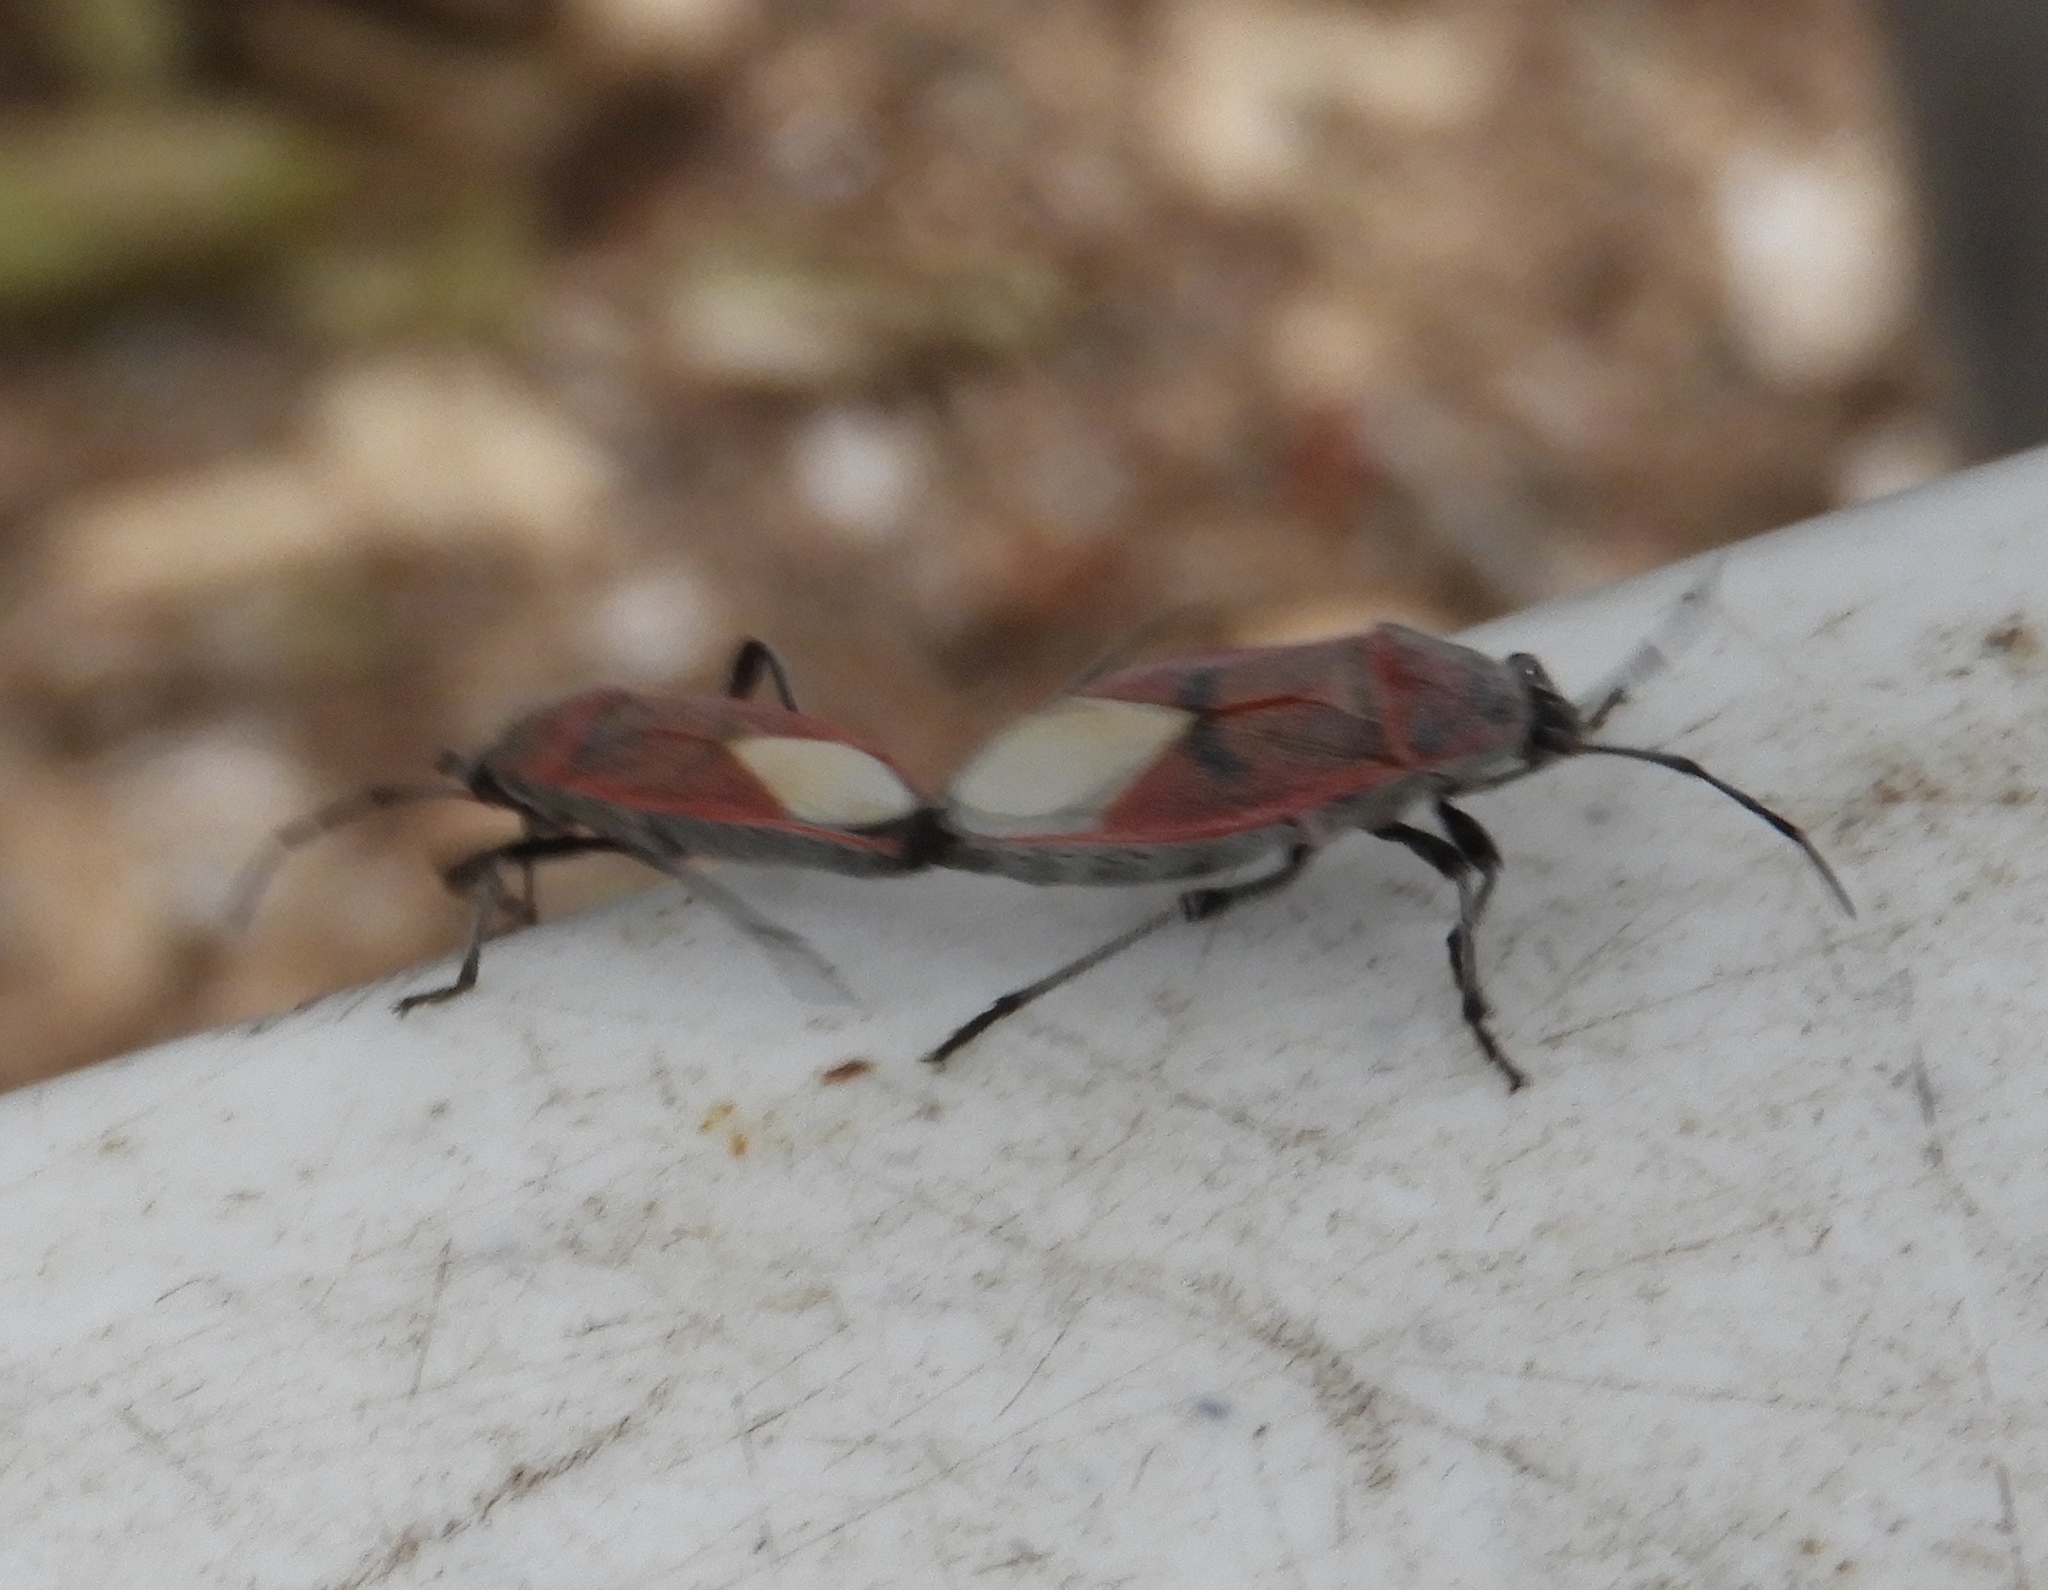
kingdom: Animalia
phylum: Arthropoda
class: Insecta
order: Hemiptera
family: Largidae
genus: Largus
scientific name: Largus
